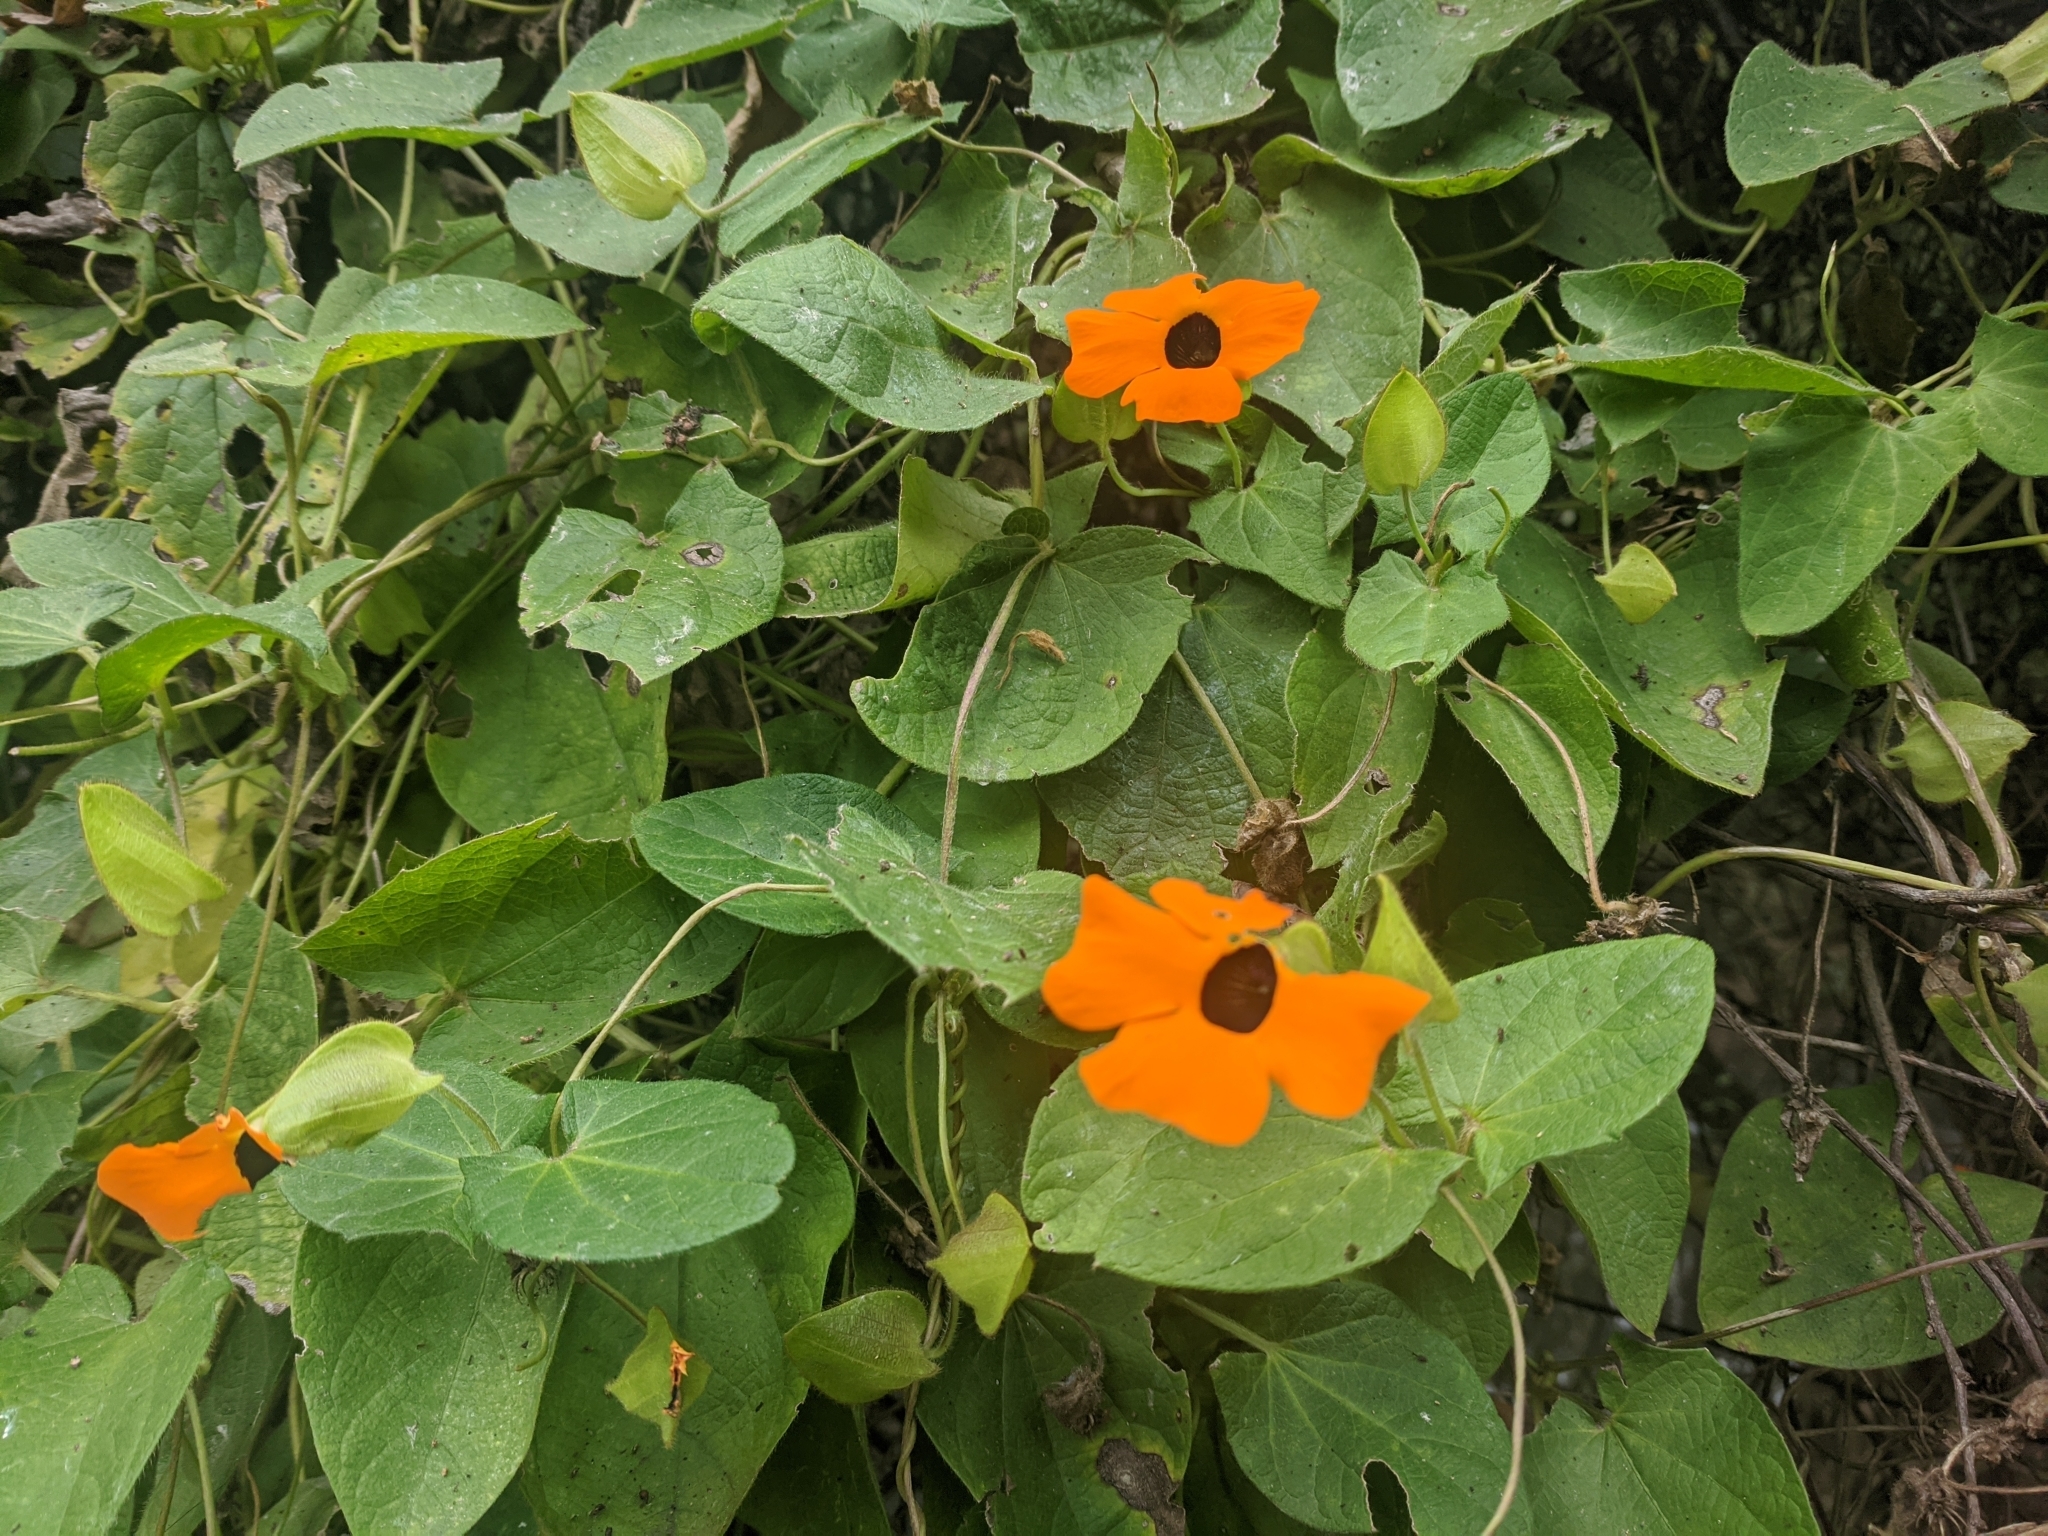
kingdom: Plantae
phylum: Tracheophyta
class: Magnoliopsida
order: Lamiales
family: Acanthaceae
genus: Thunbergia
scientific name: Thunbergia alata
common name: Blackeyed susan vine
